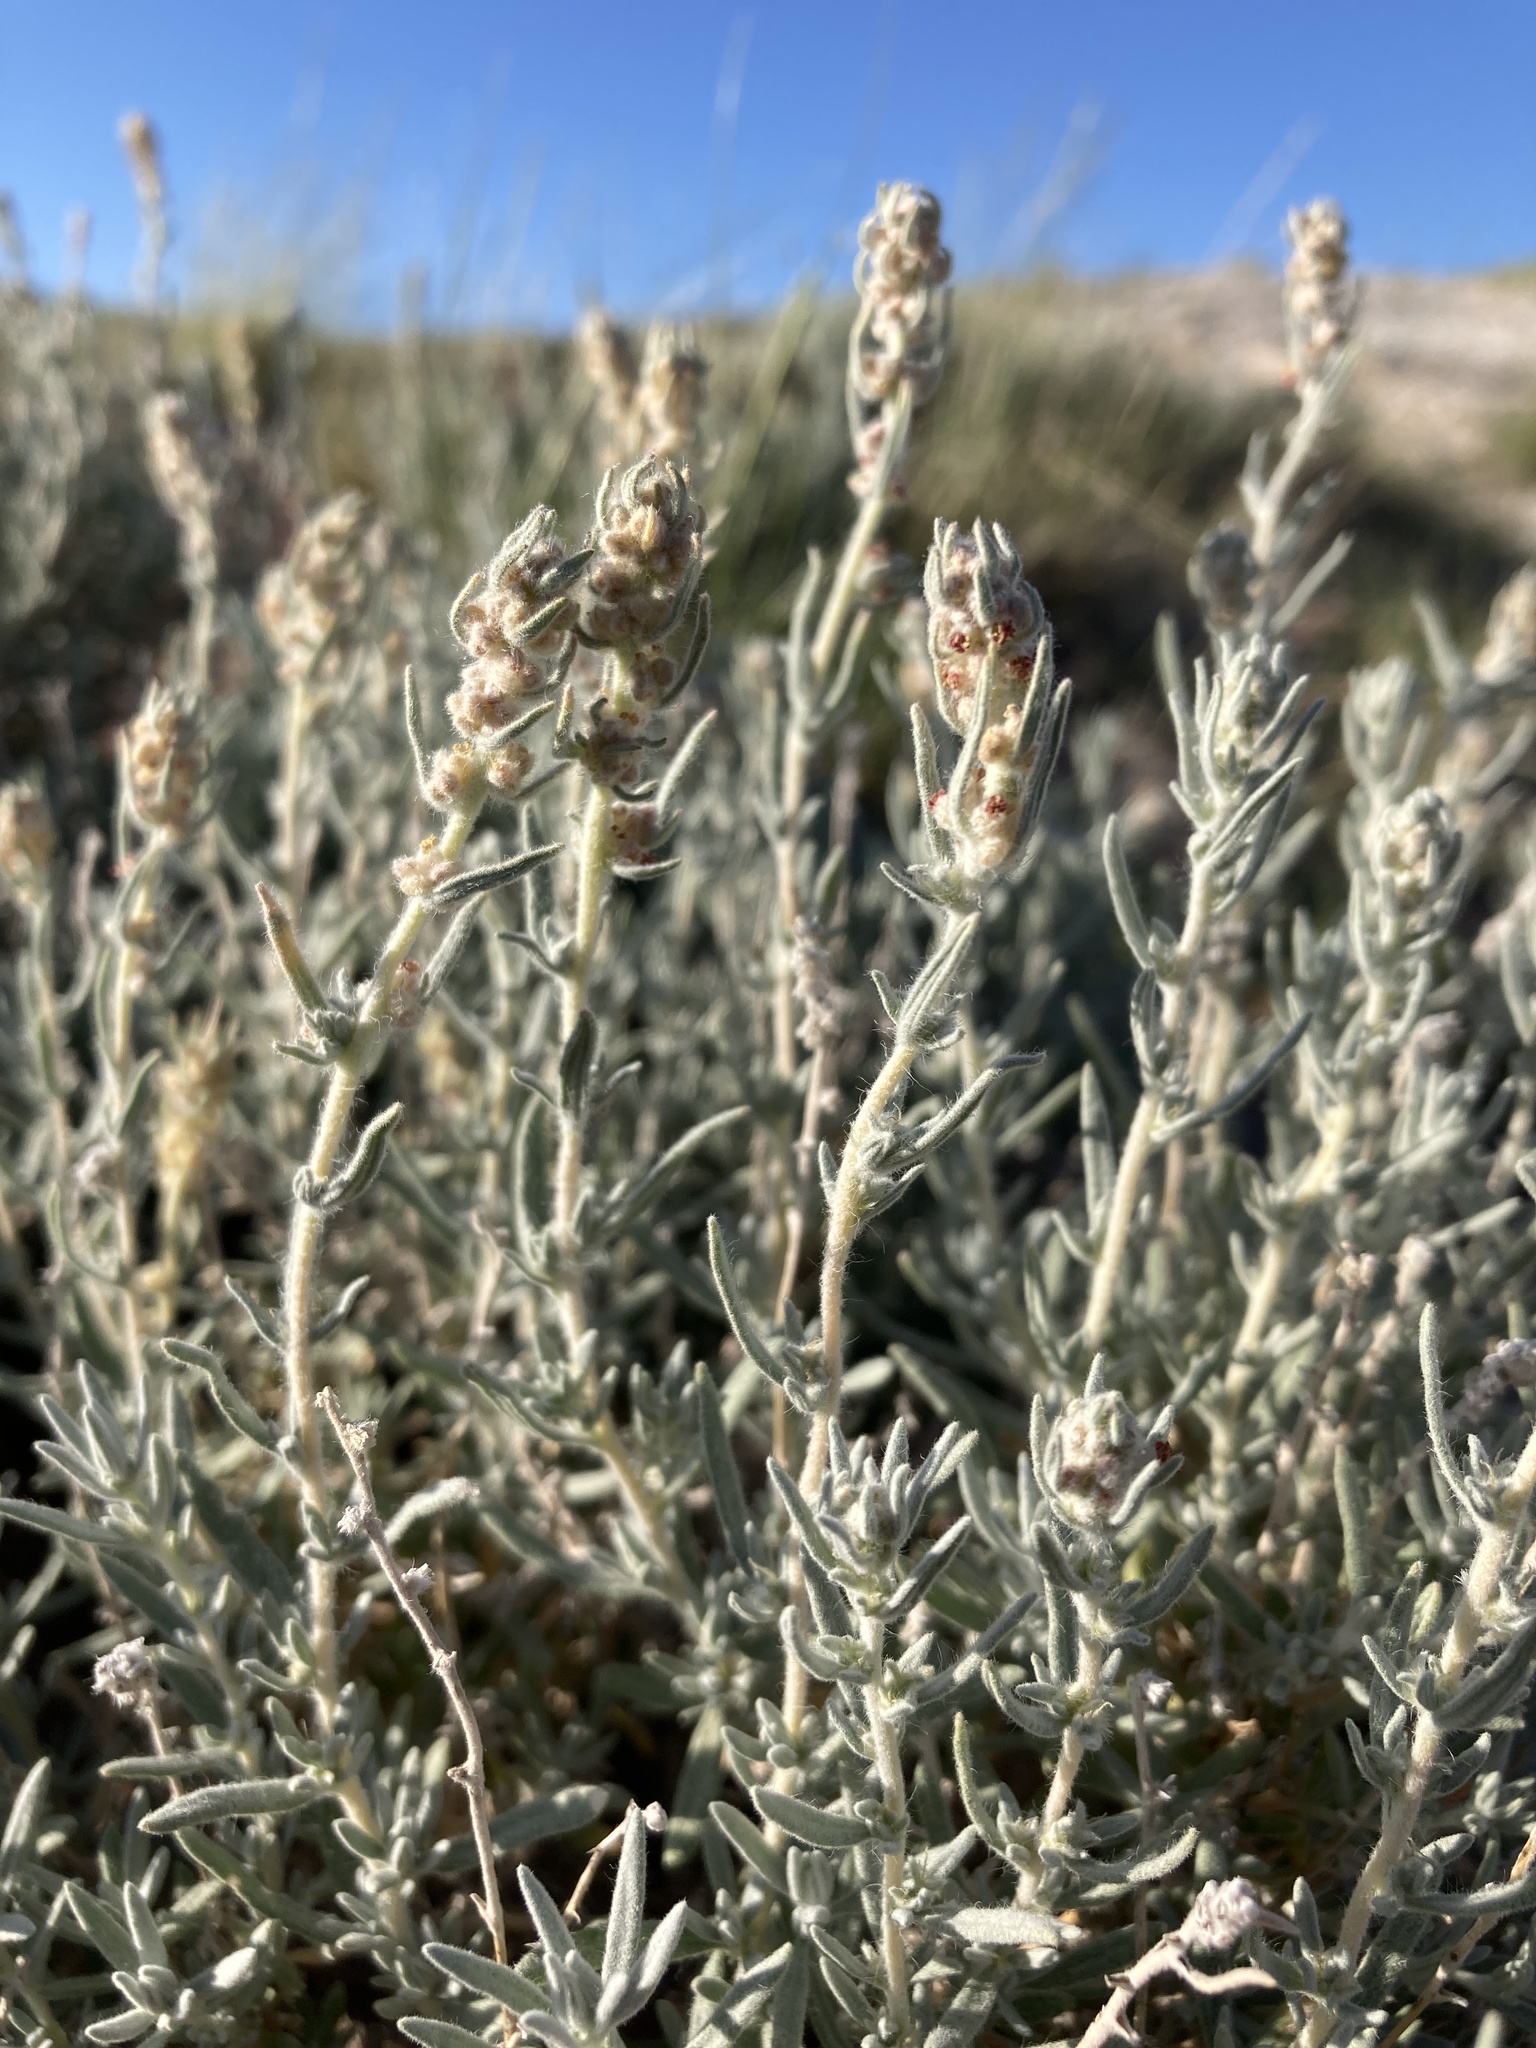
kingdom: Plantae
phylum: Tracheophyta
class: Magnoliopsida
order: Caryophyllales
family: Amaranthaceae
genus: Krascheninnikovia
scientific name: Krascheninnikovia lanata
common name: Winterfat
